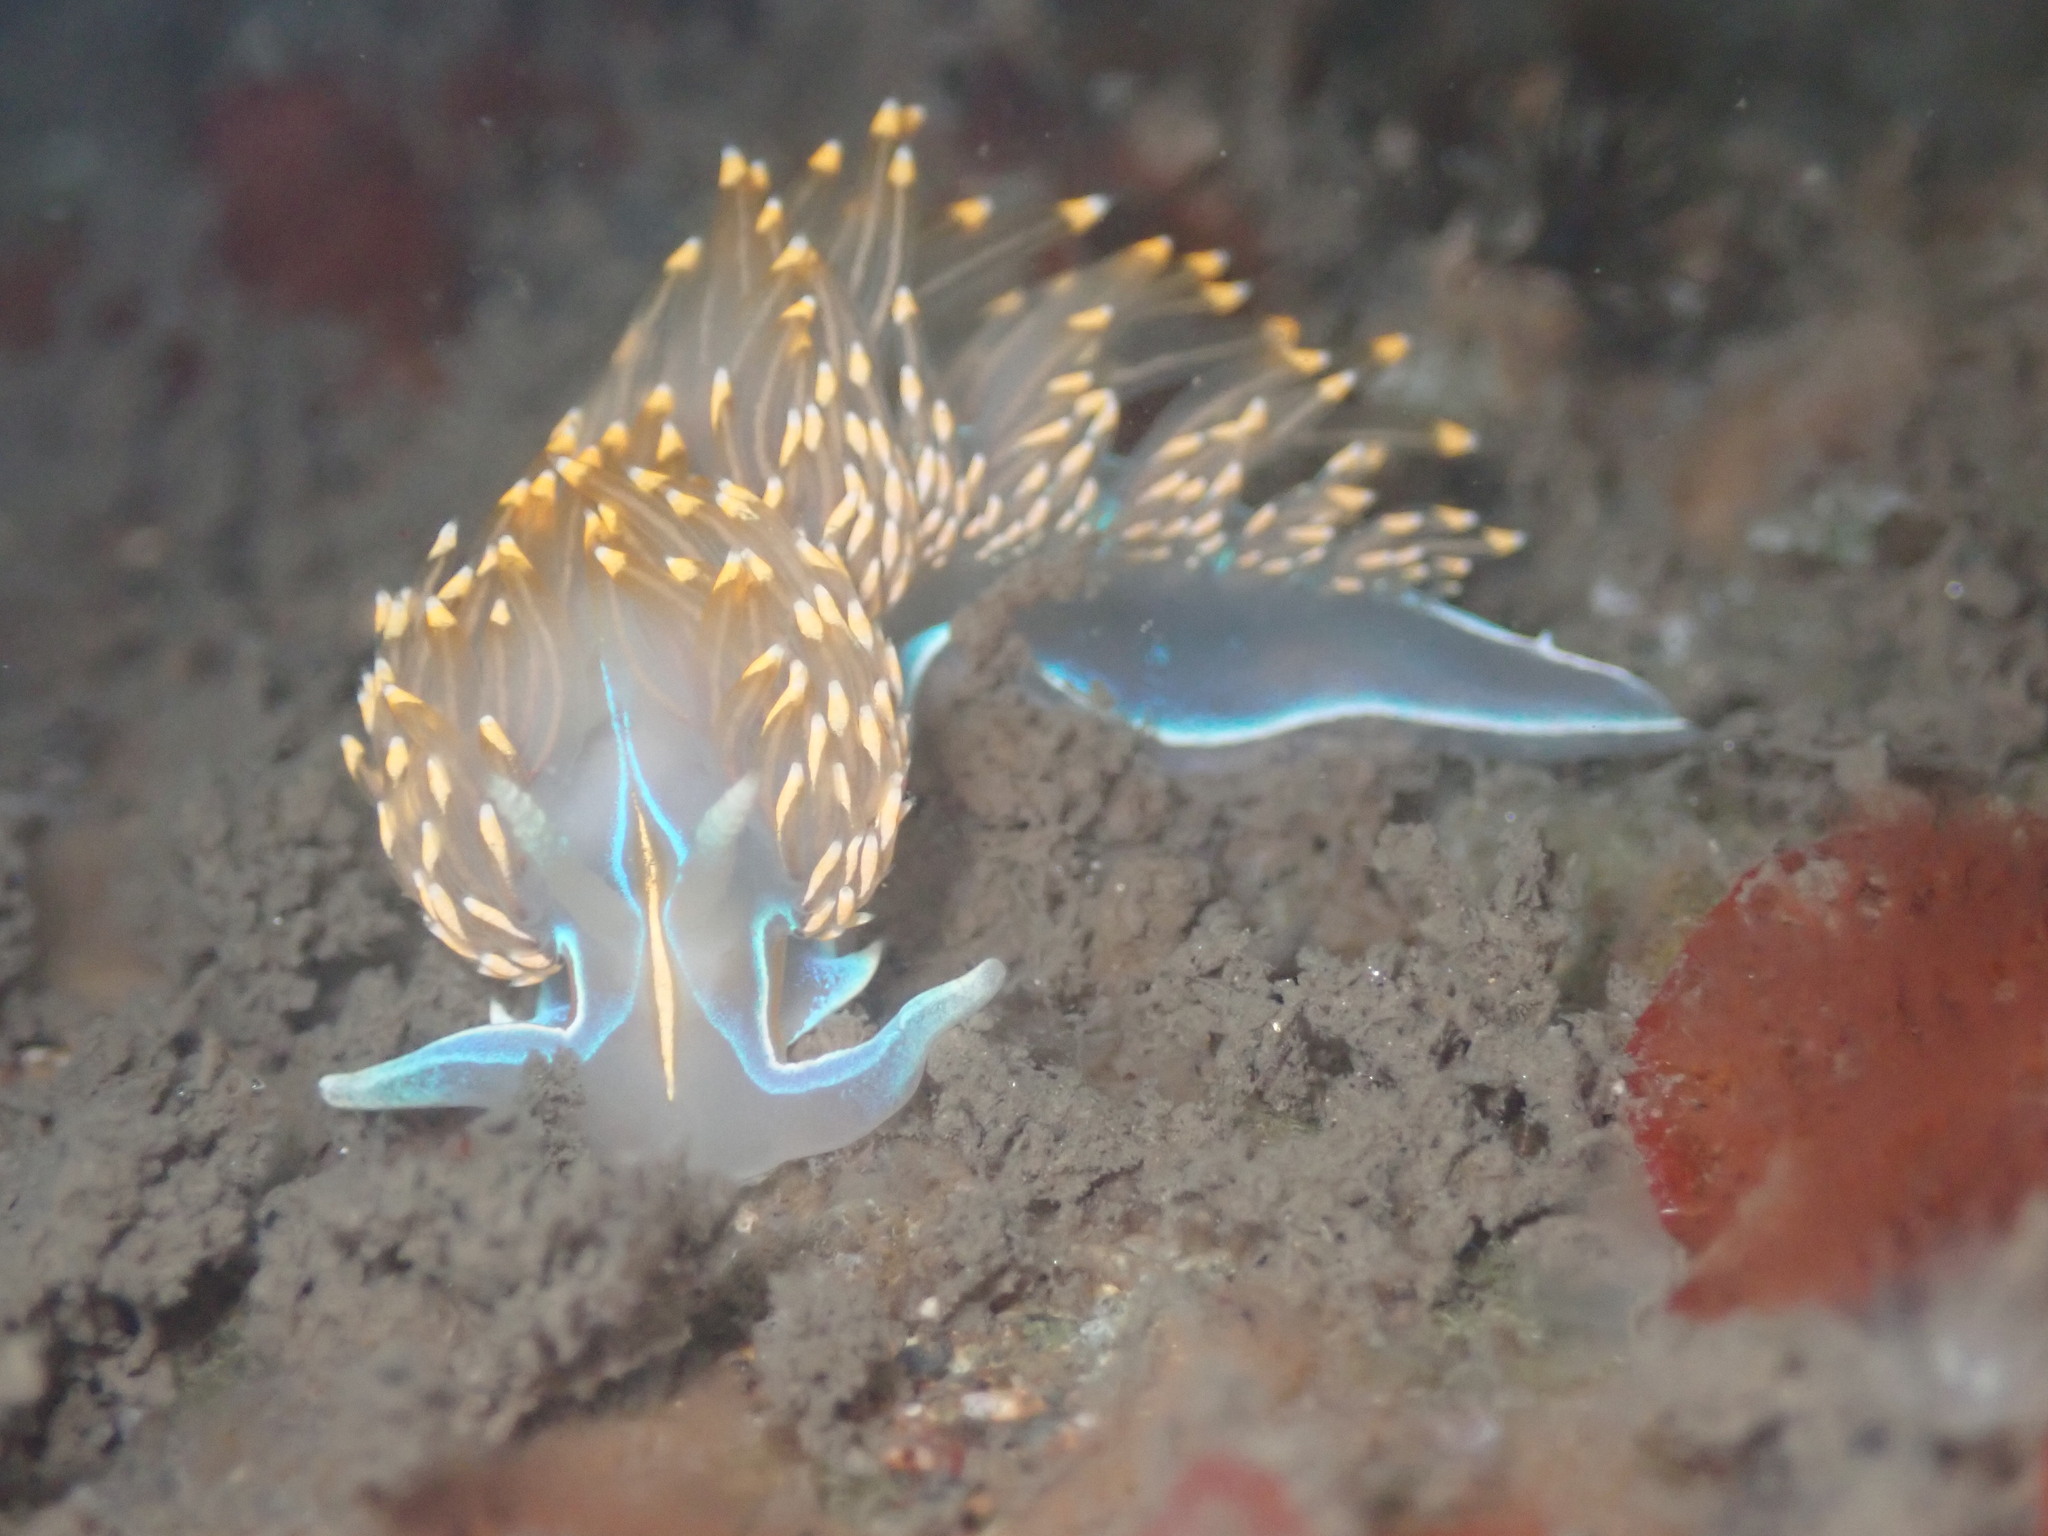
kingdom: Animalia
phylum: Mollusca
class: Gastropoda
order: Nudibranchia
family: Myrrhinidae
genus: Hermissenda
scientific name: Hermissenda opalescens
